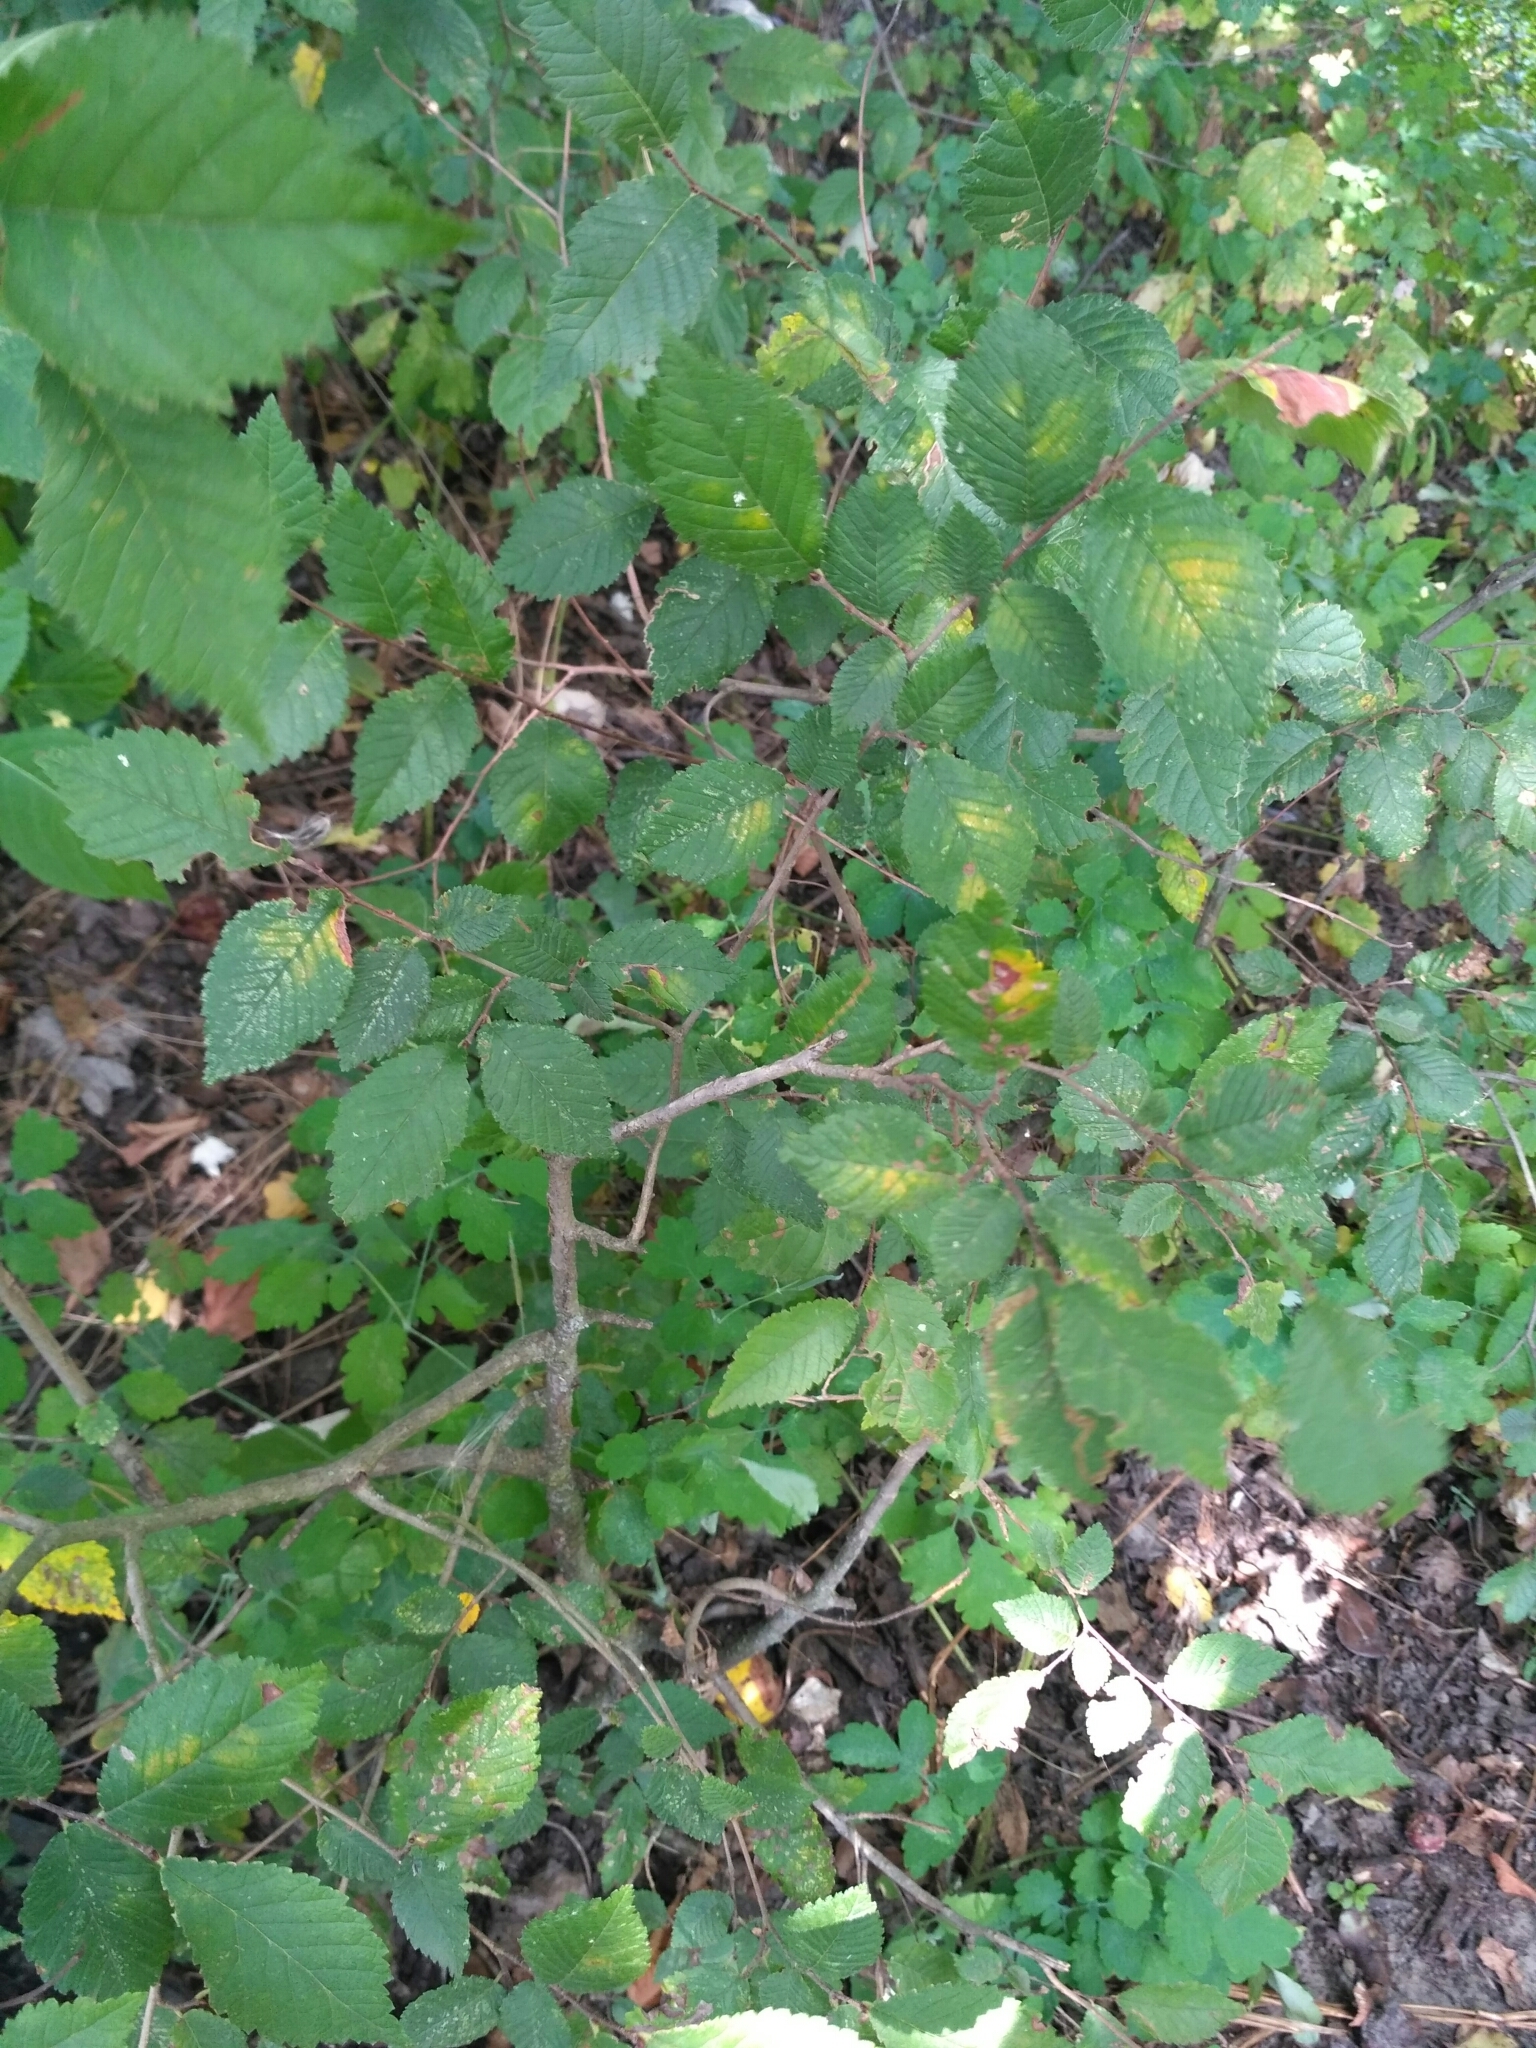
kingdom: Plantae
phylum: Tracheophyta
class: Magnoliopsida
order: Rosales
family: Ulmaceae
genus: Ulmus
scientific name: Ulmus minor
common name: Small-leaved elm
